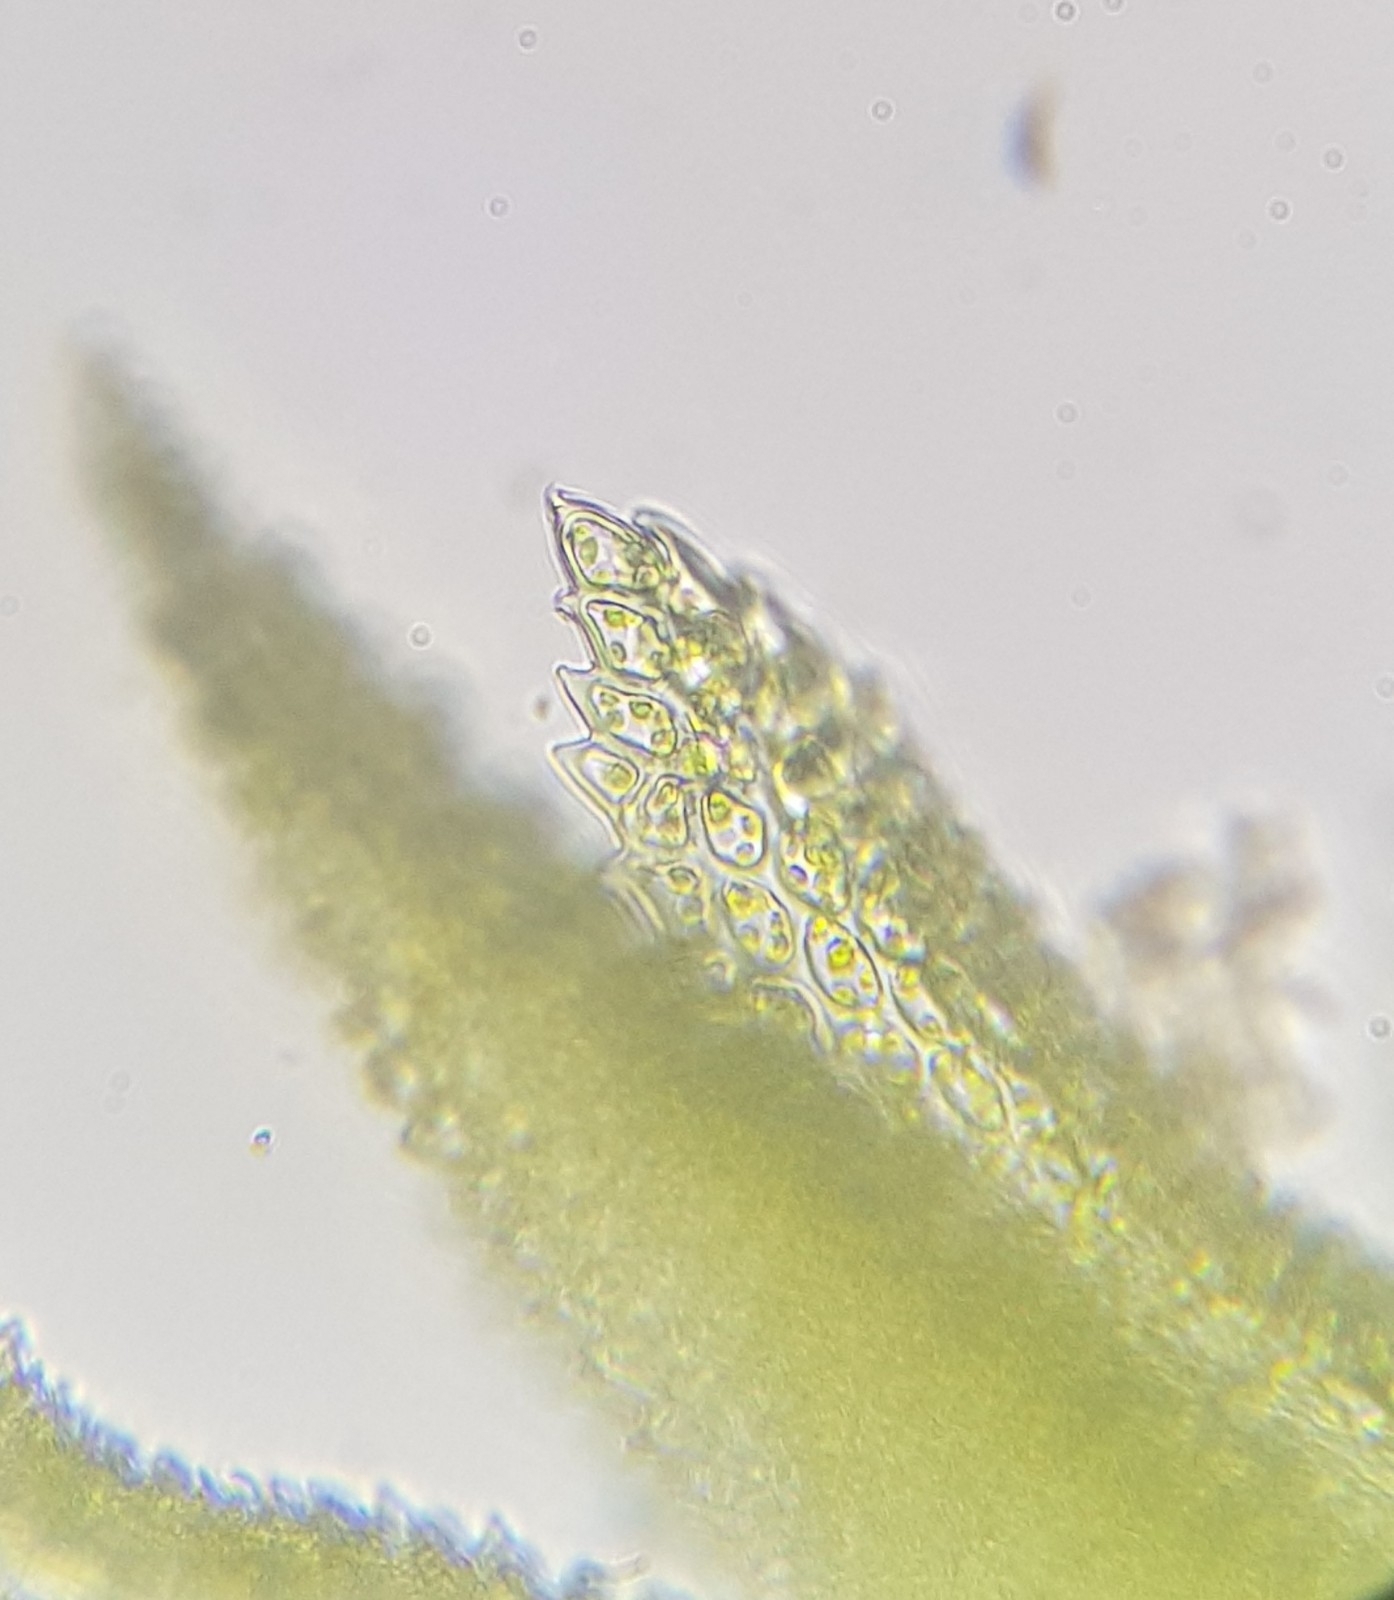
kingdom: Plantae
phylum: Bryophyta
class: Bryopsida
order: Hypnales
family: Thuidiaceae
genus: Thuidium
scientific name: Thuidium tamariscinum
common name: Common tamarisk-moss
